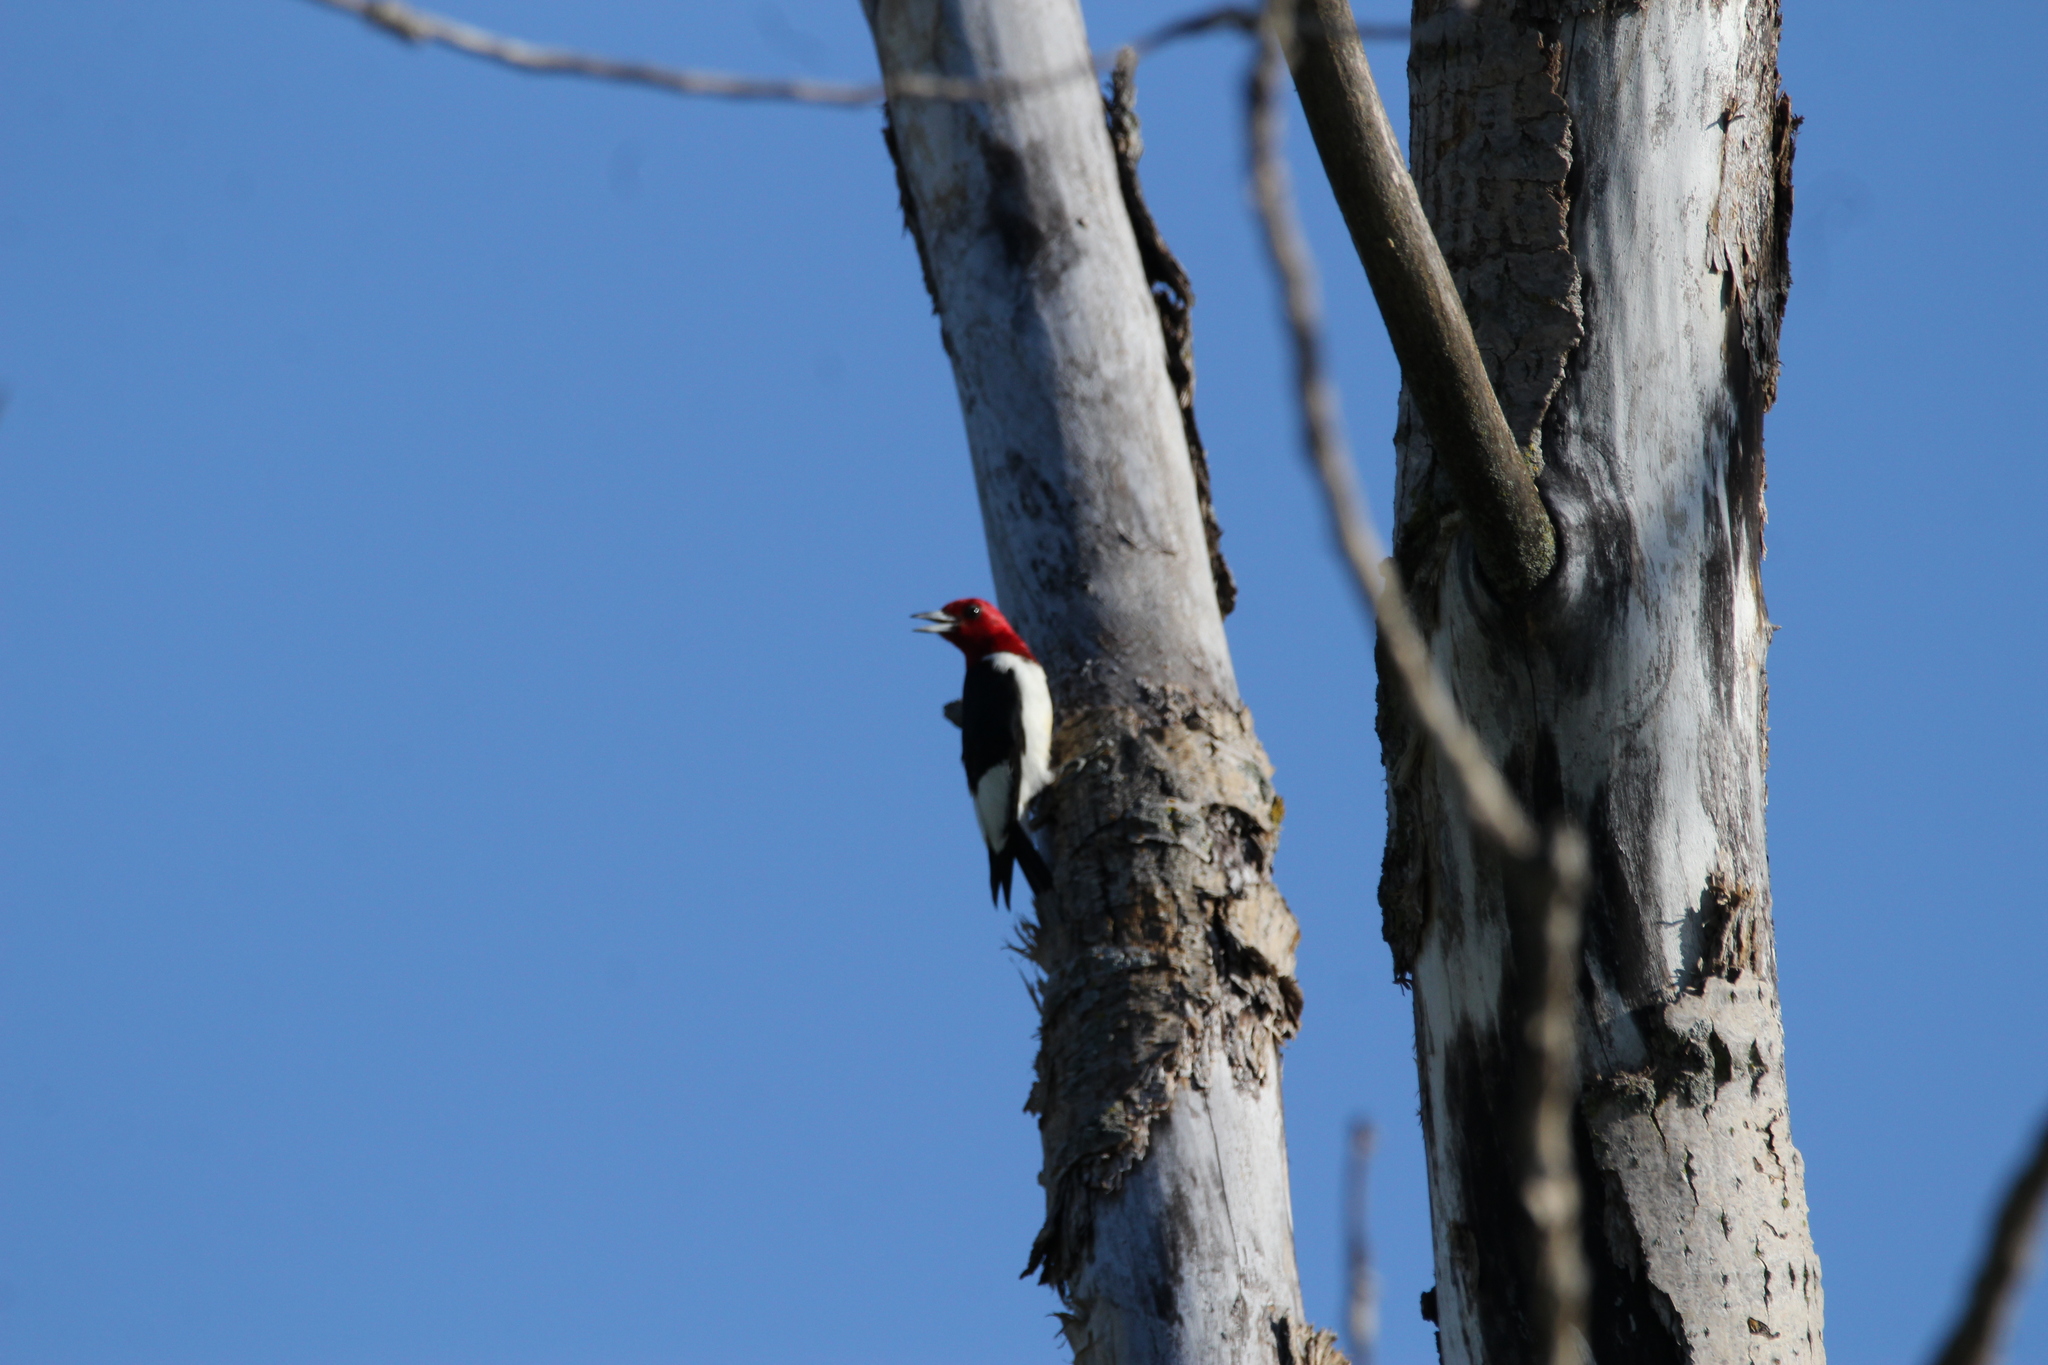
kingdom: Animalia
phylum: Chordata
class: Aves
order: Piciformes
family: Picidae
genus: Melanerpes
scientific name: Melanerpes erythrocephalus
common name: Red-headed woodpecker
